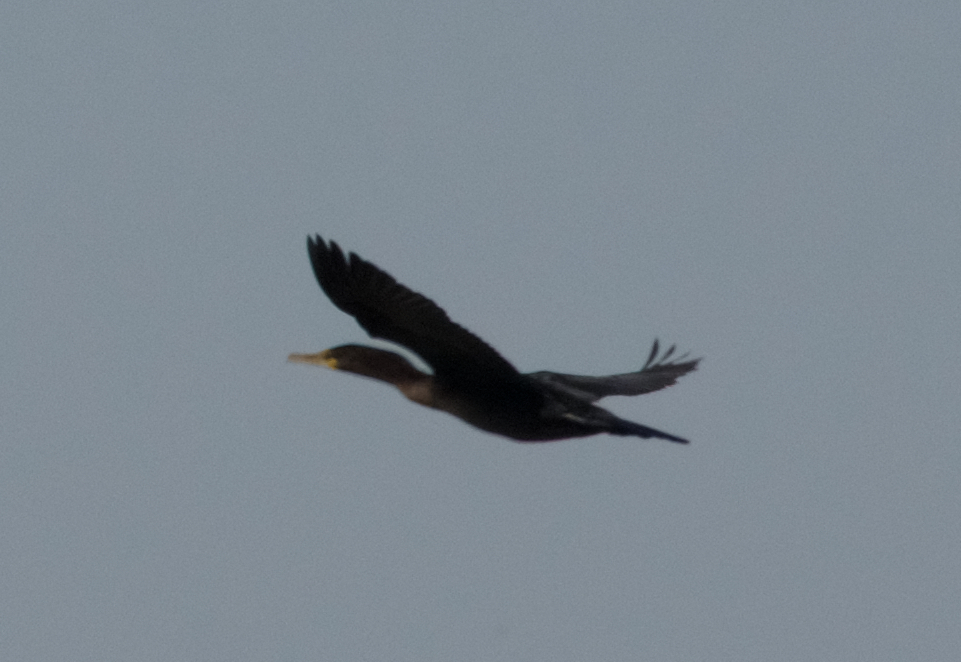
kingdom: Animalia
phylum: Chordata
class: Aves
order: Suliformes
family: Phalacrocoracidae
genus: Phalacrocorax
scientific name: Phalacrocorax auritus
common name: Double-crested cormorant
